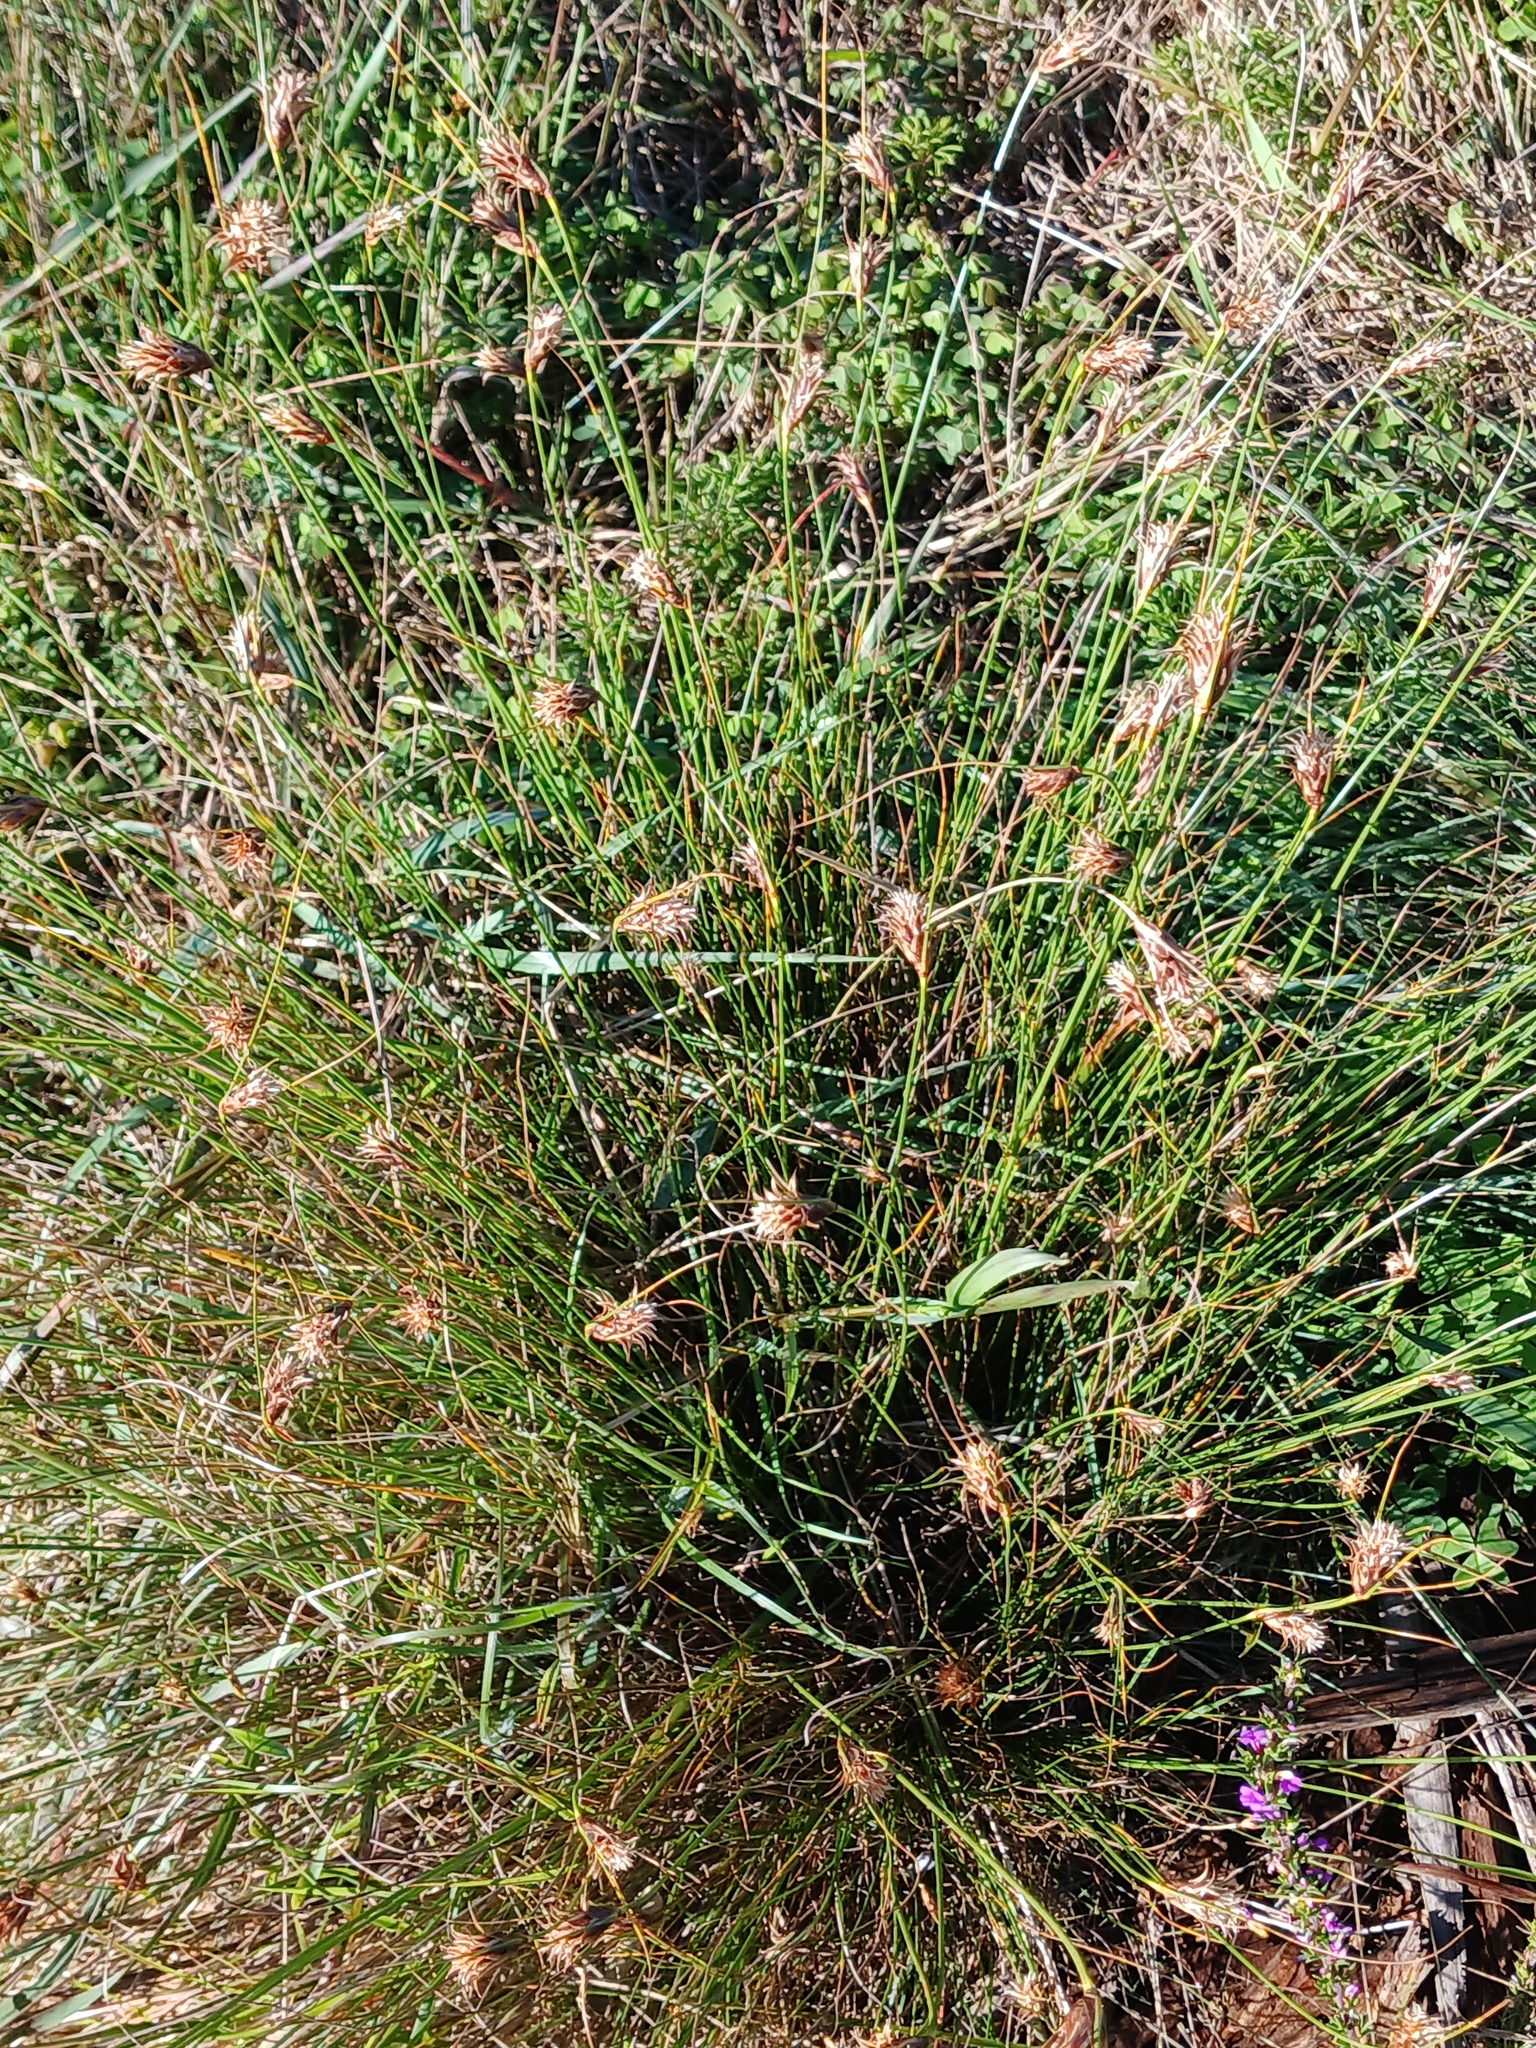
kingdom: Plantae
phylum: Tracheophyta
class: Liliopsida
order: Poales
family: Cyperaceae
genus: Ficinia
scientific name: Ficinia nigrescens
